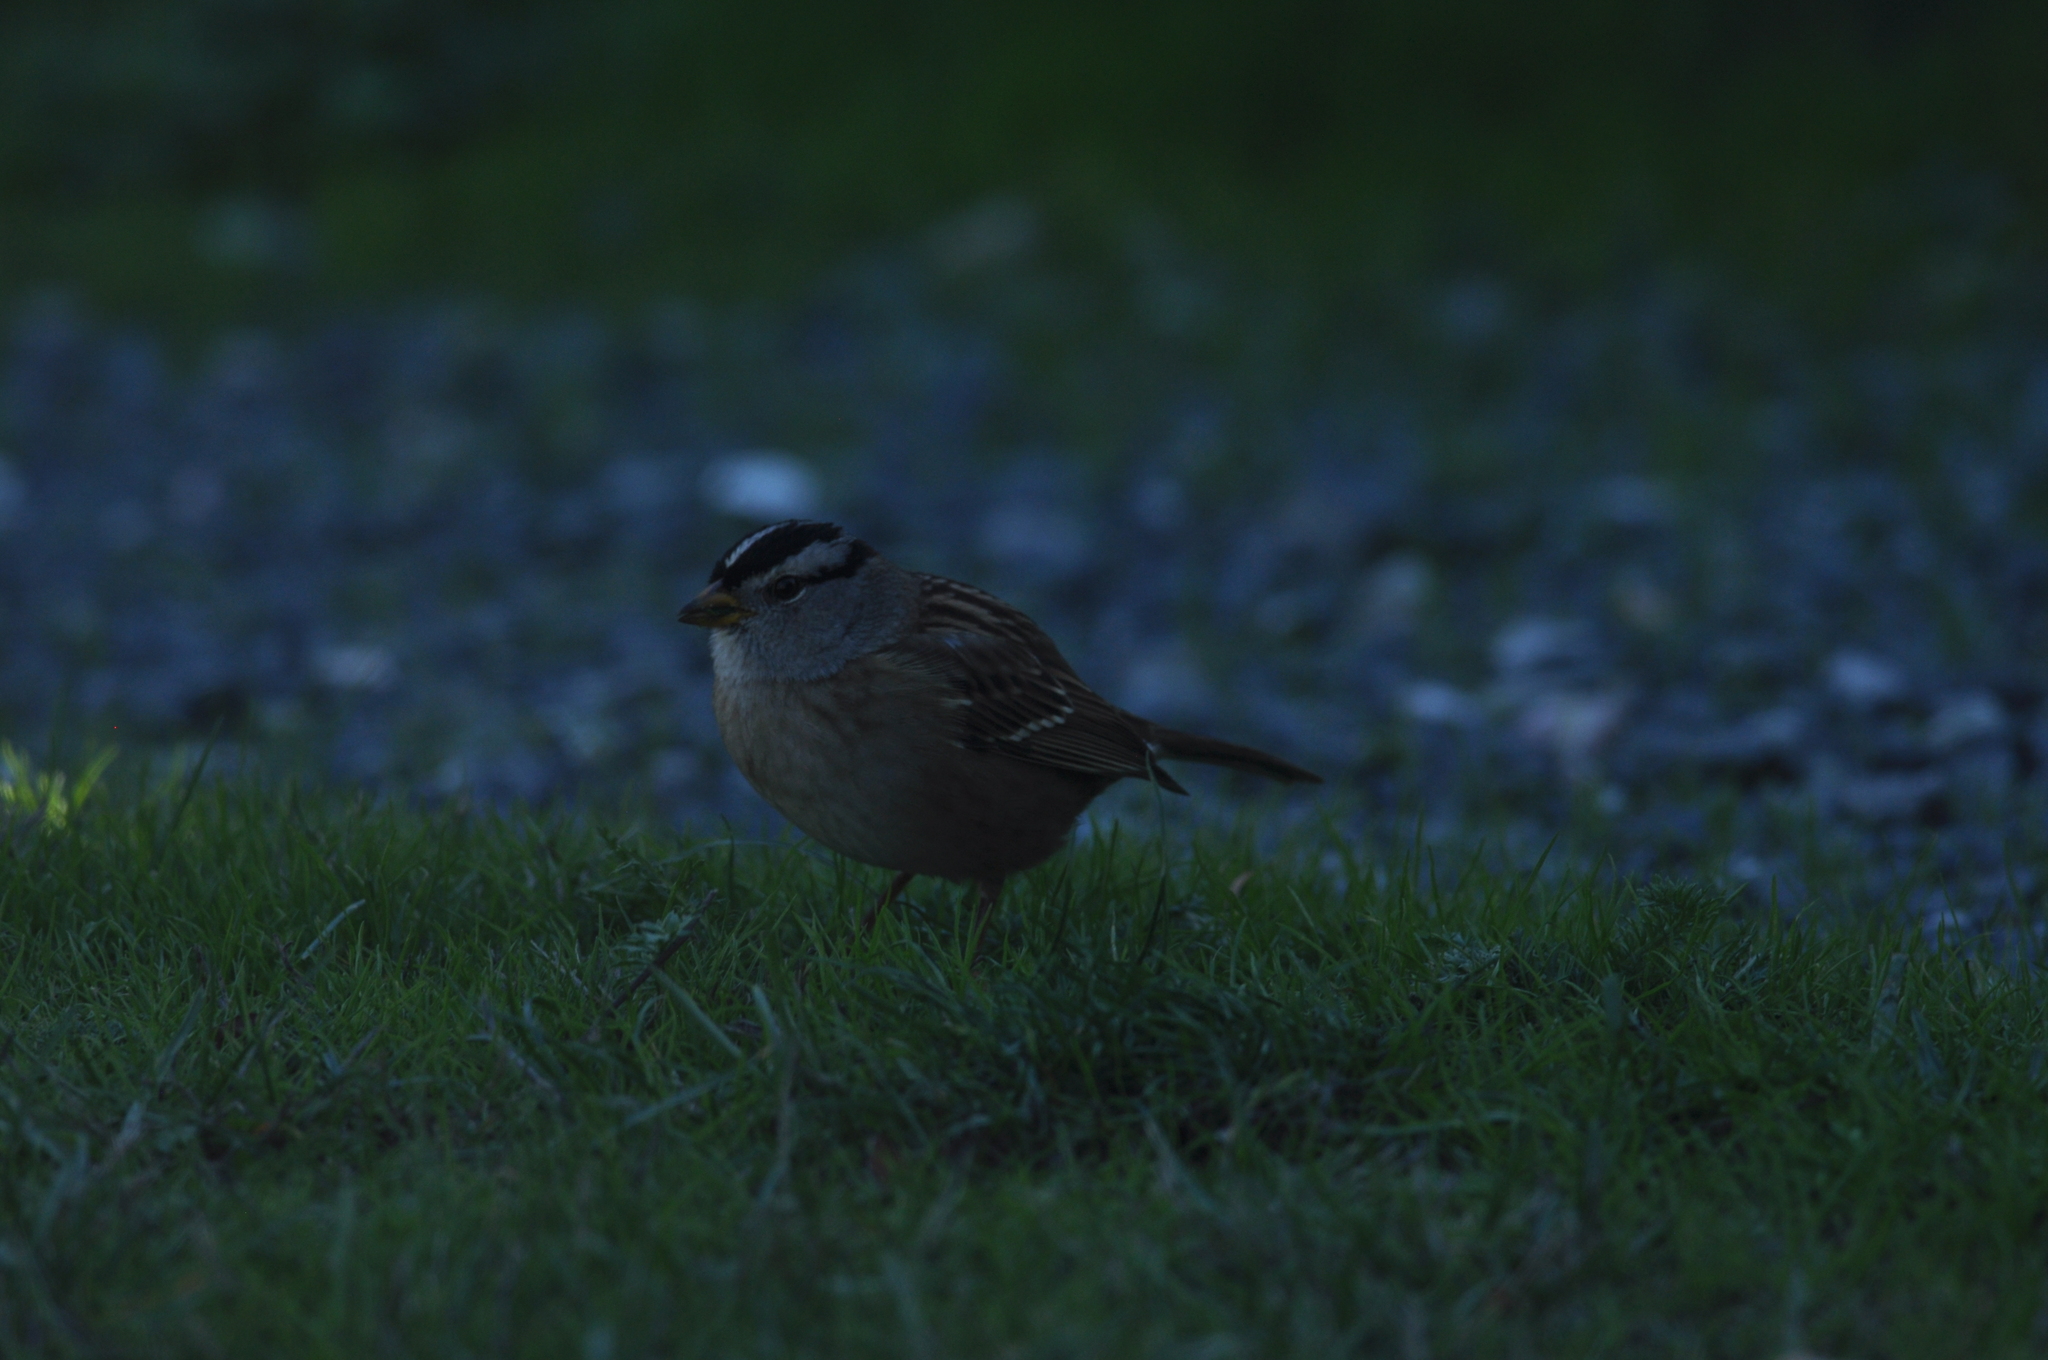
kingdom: Animalia
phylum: Chordata
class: Aves
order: Passeriformes
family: Passerellidae
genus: Zonotrichia
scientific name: Zonotrichia leucophrys
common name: White-crowned sparrow
